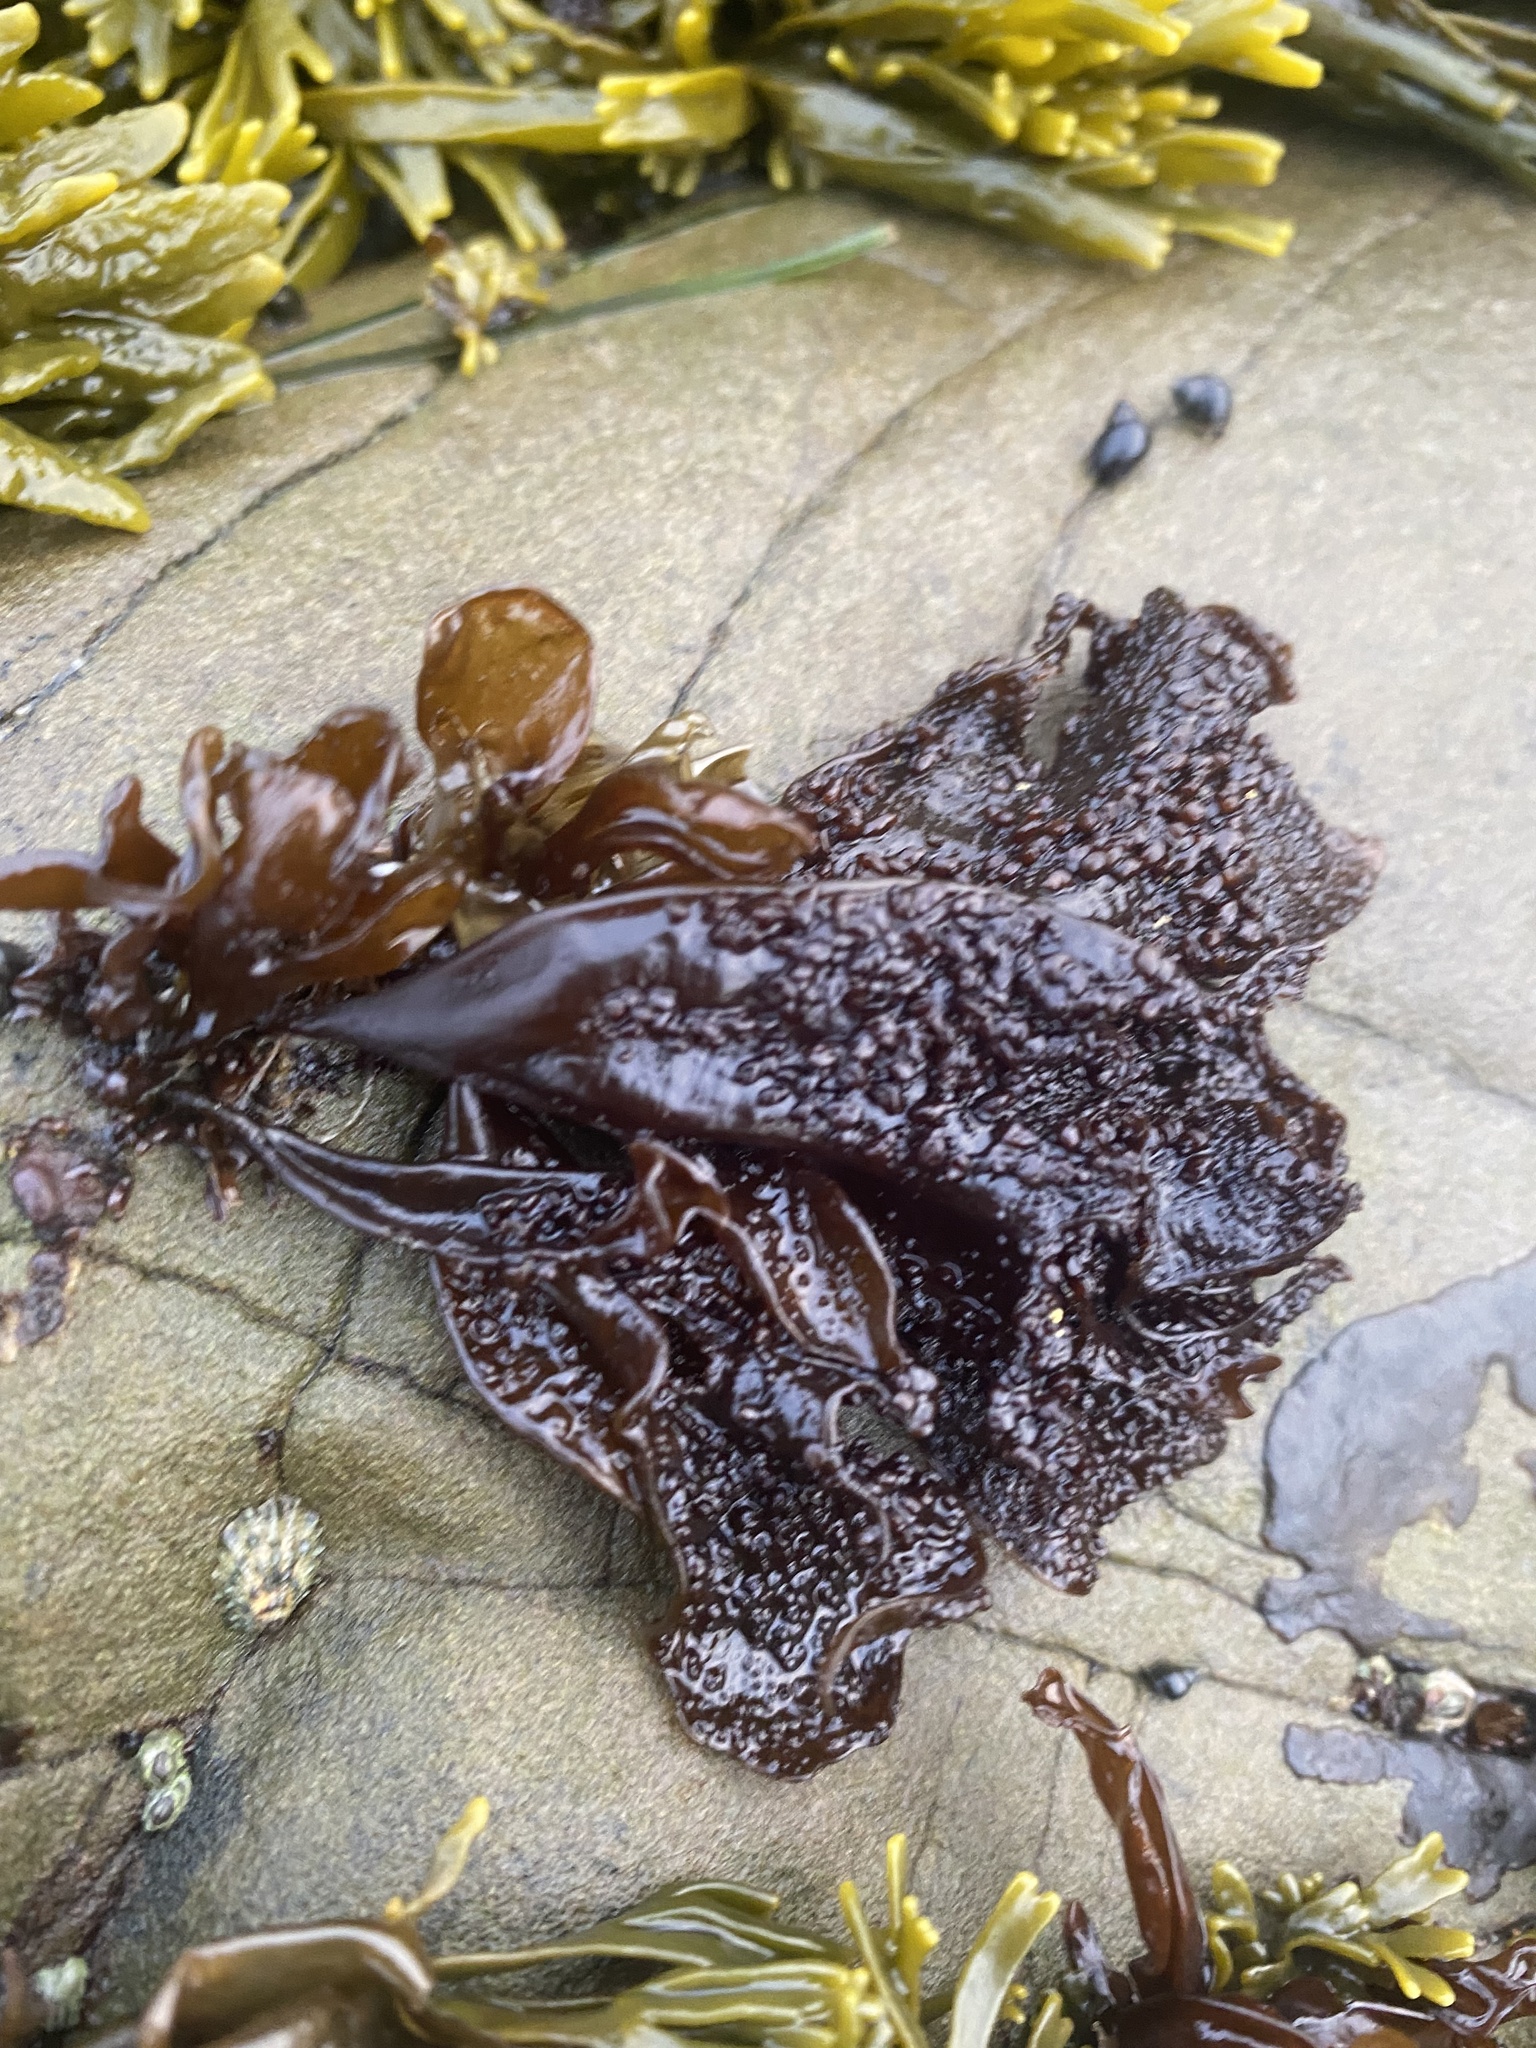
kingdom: Plantae
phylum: Rhodophyta
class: Florideophyceae
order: Gigartinales
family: Phyllophoraceae
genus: Mastocarpus
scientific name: Mastocarpus papillatus
